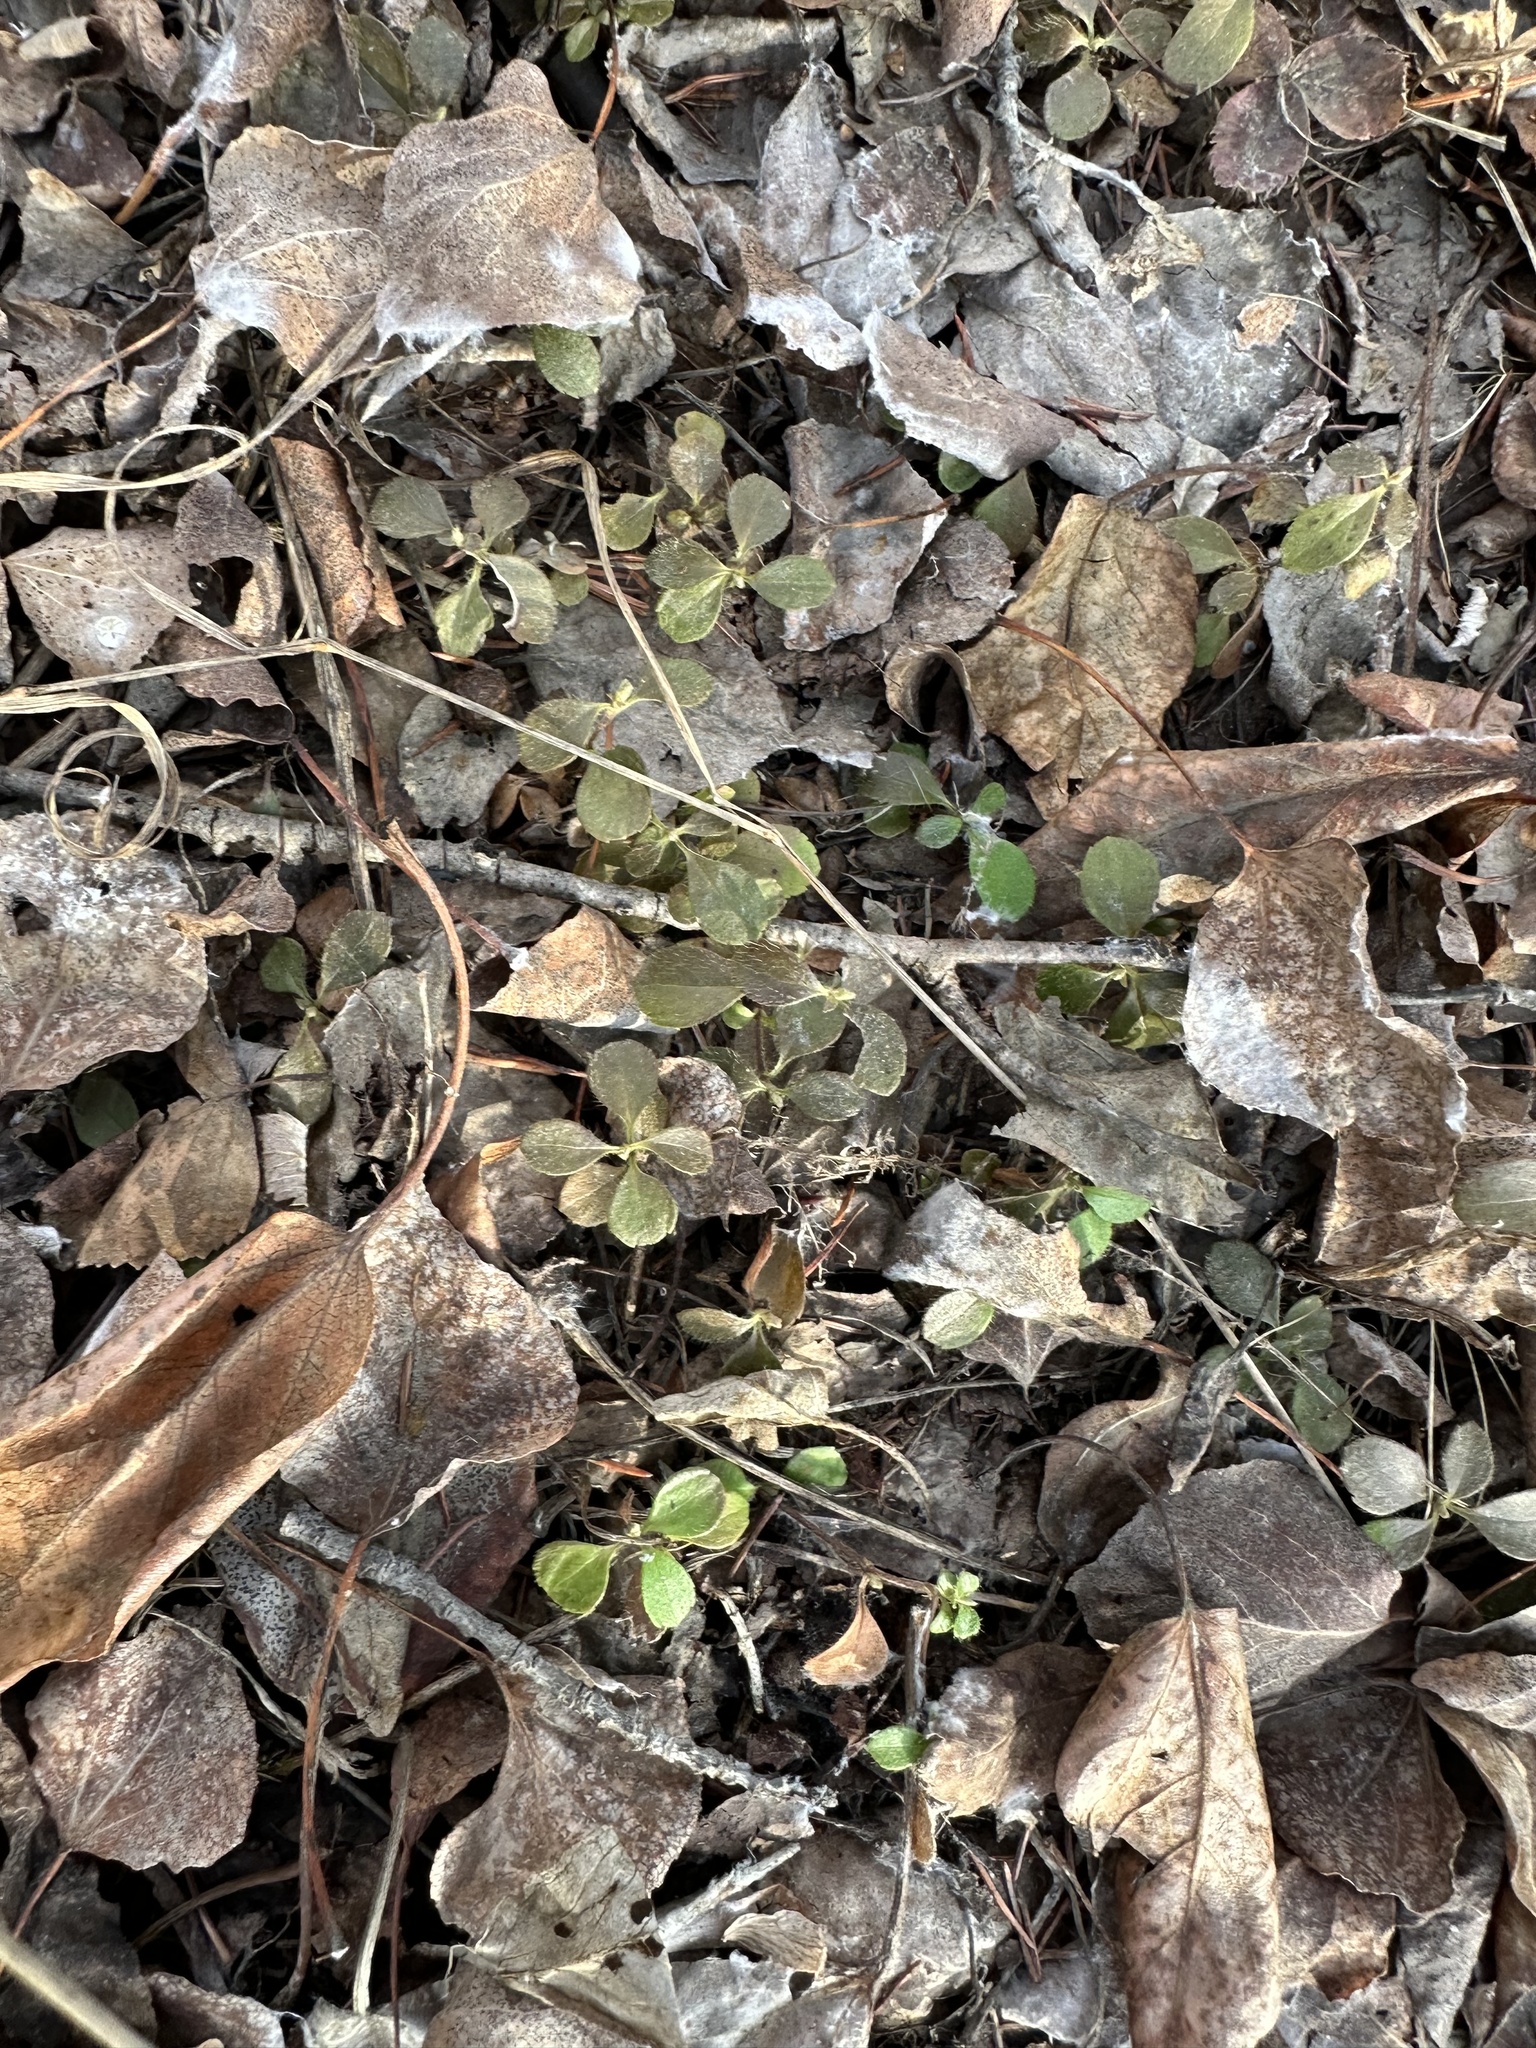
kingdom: Plantae
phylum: Tracheophyta
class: Magnoliopsida
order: Dipsacales
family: Caprifoliaceae
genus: Linnaea
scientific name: Linnaea borealis
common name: Twinflower
